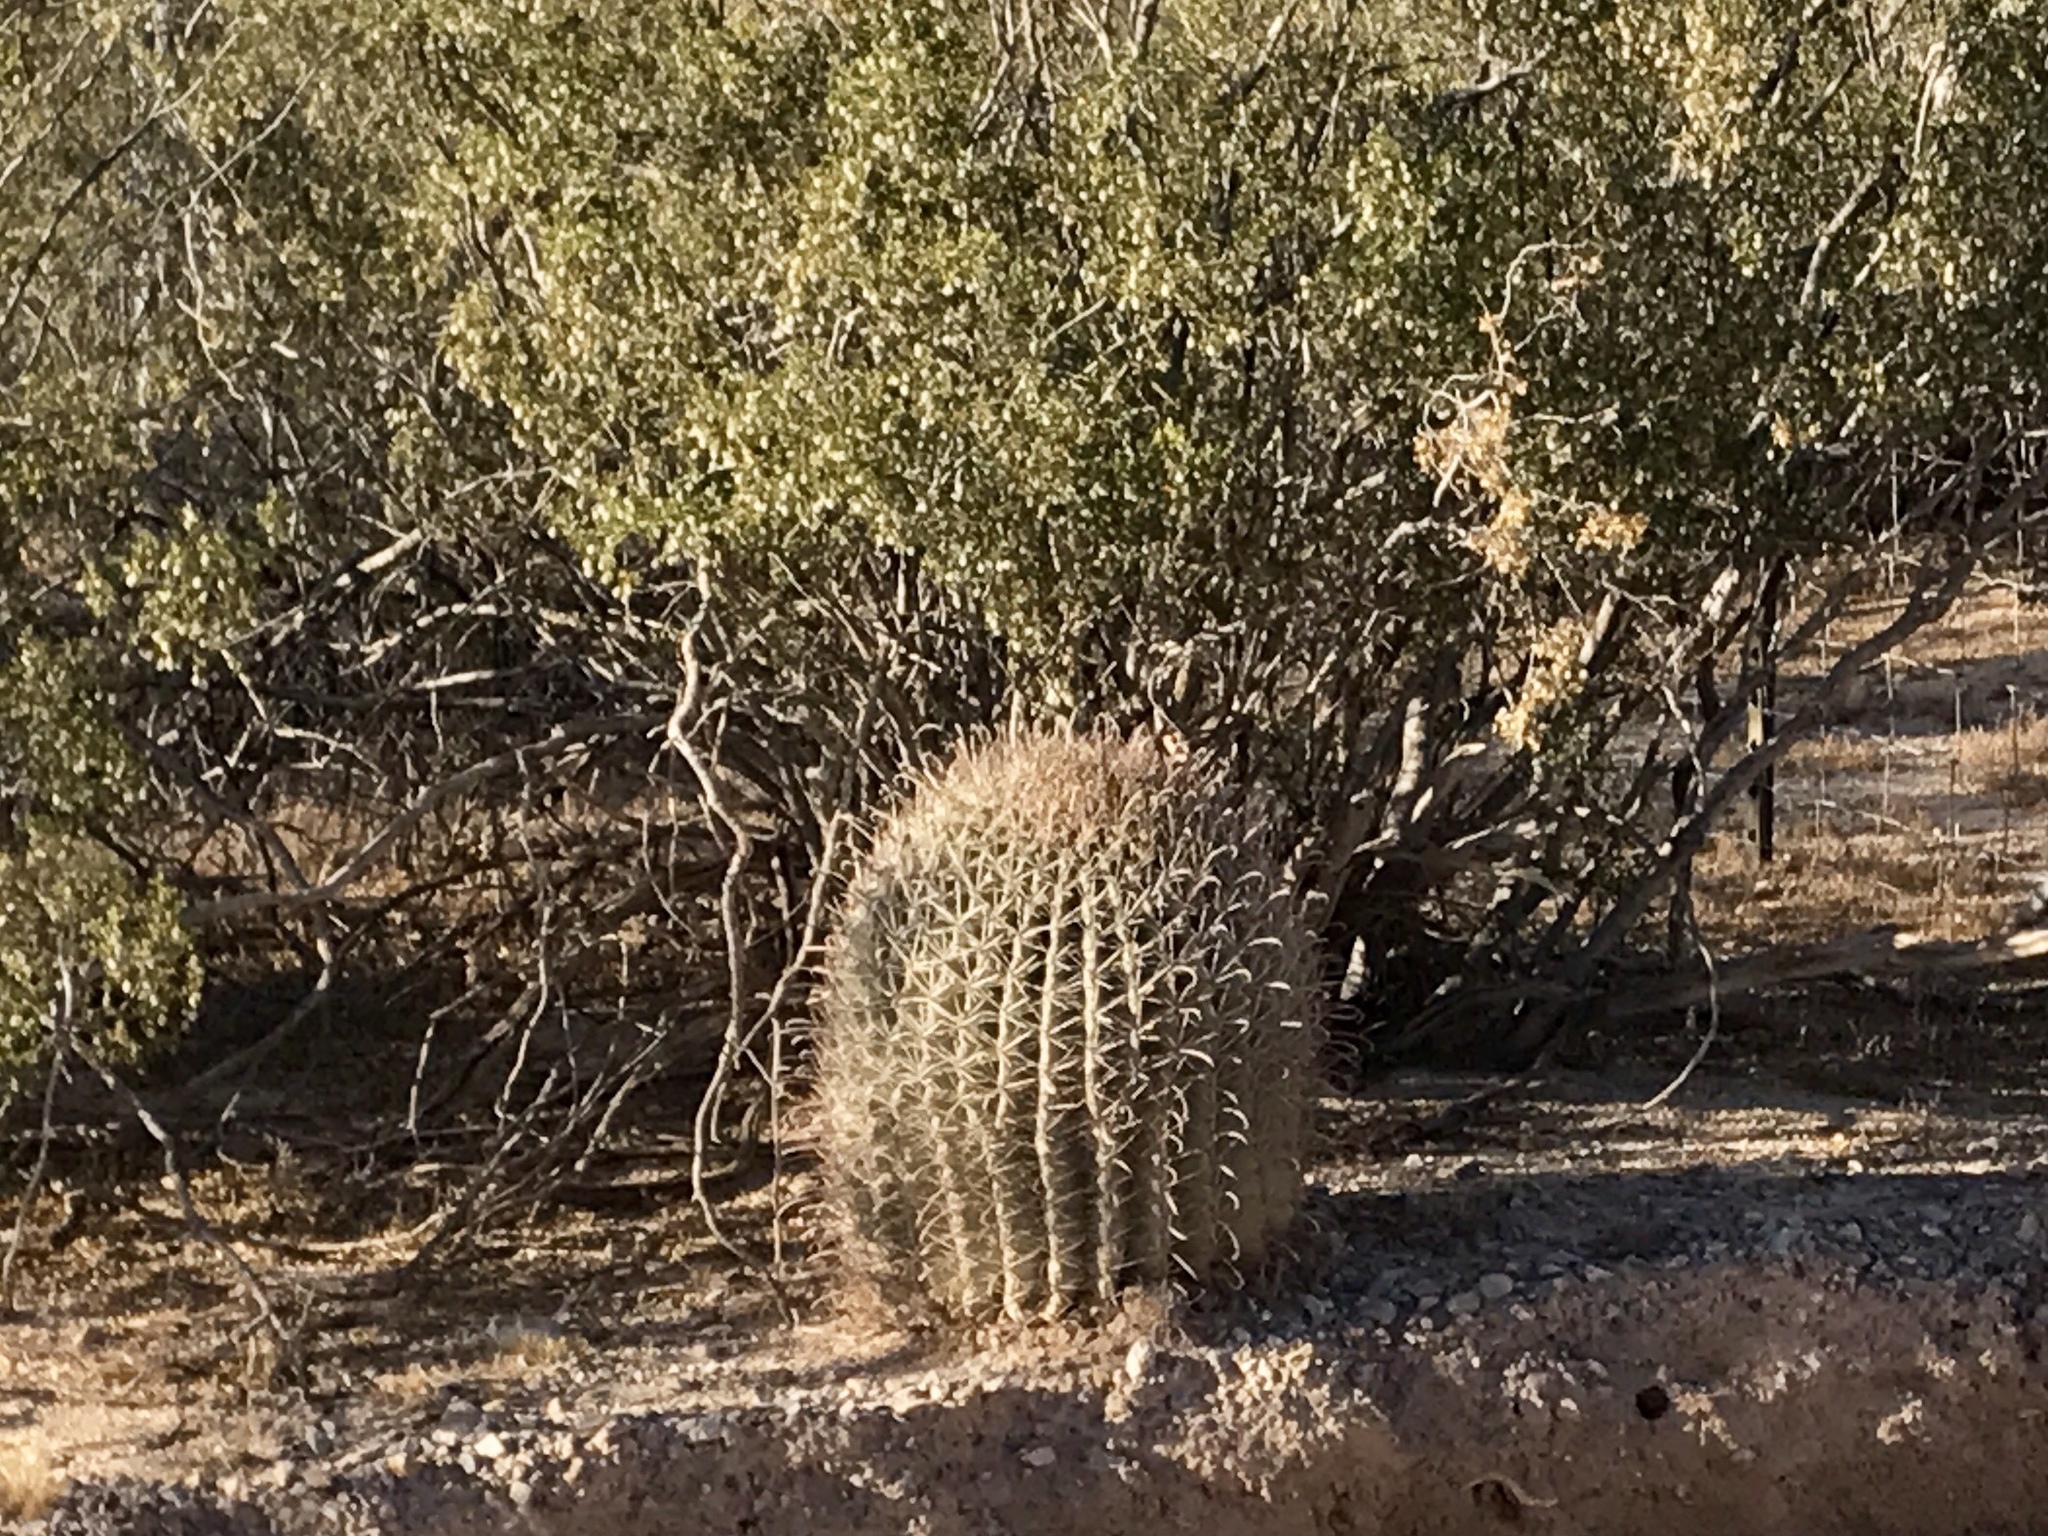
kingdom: Plantae
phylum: Tracheophyta
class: Magnoliopsida
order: Caryophyllales
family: Cactaceae
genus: Ferocactus
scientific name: Ferocactus wislizeni
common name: Candy barrel cactus
